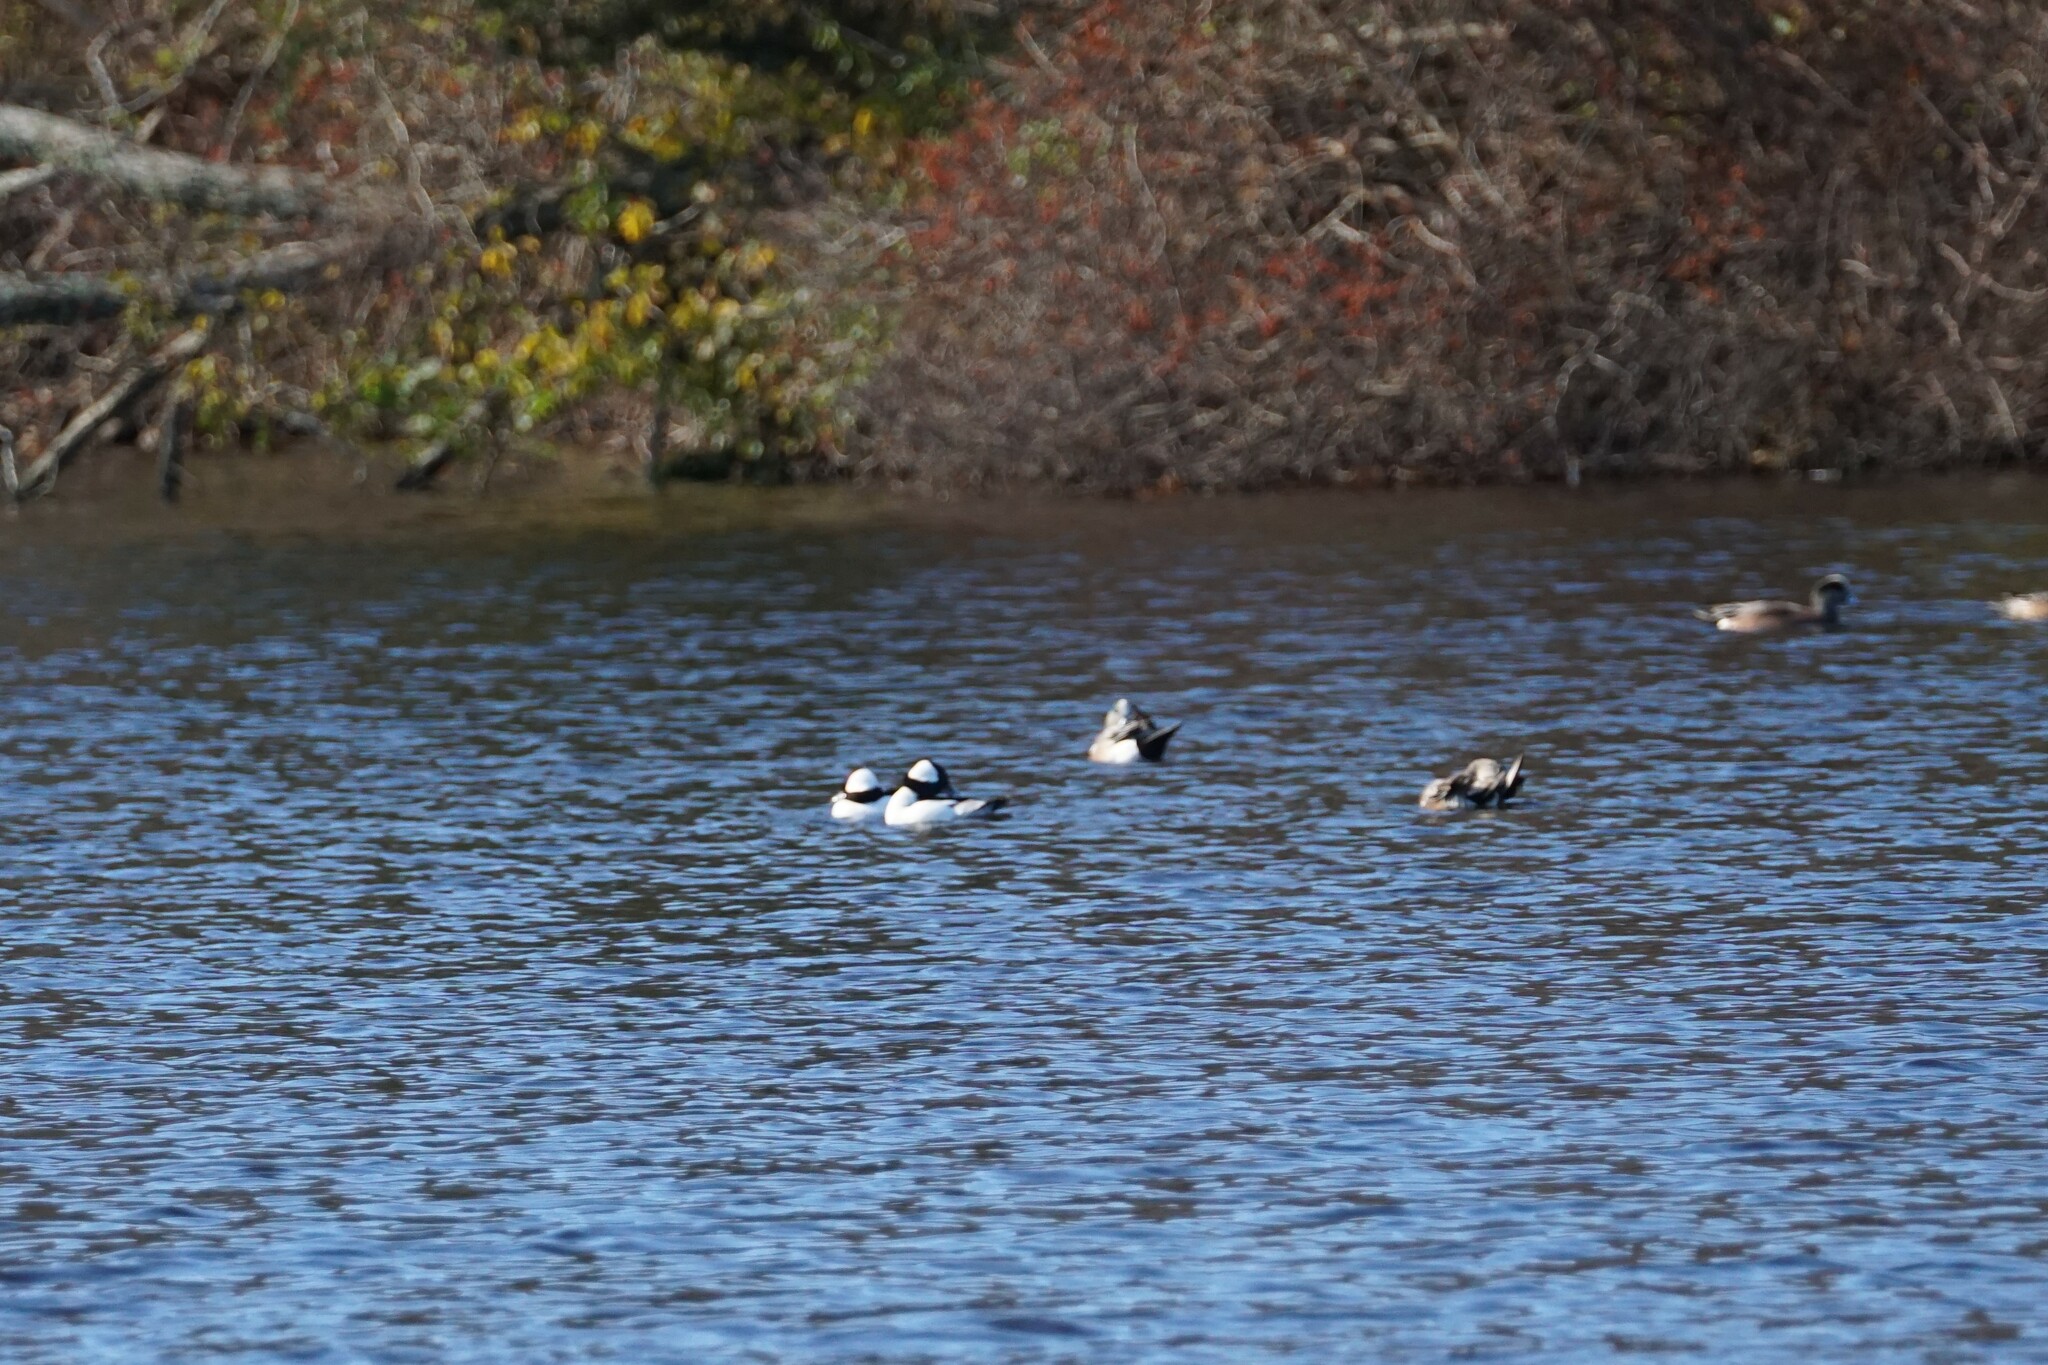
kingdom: Animalia
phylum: Chordata
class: Aves
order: Anseriformes
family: Anatidae
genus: Bucephala
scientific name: Bucephala albeola
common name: Bufflehead
